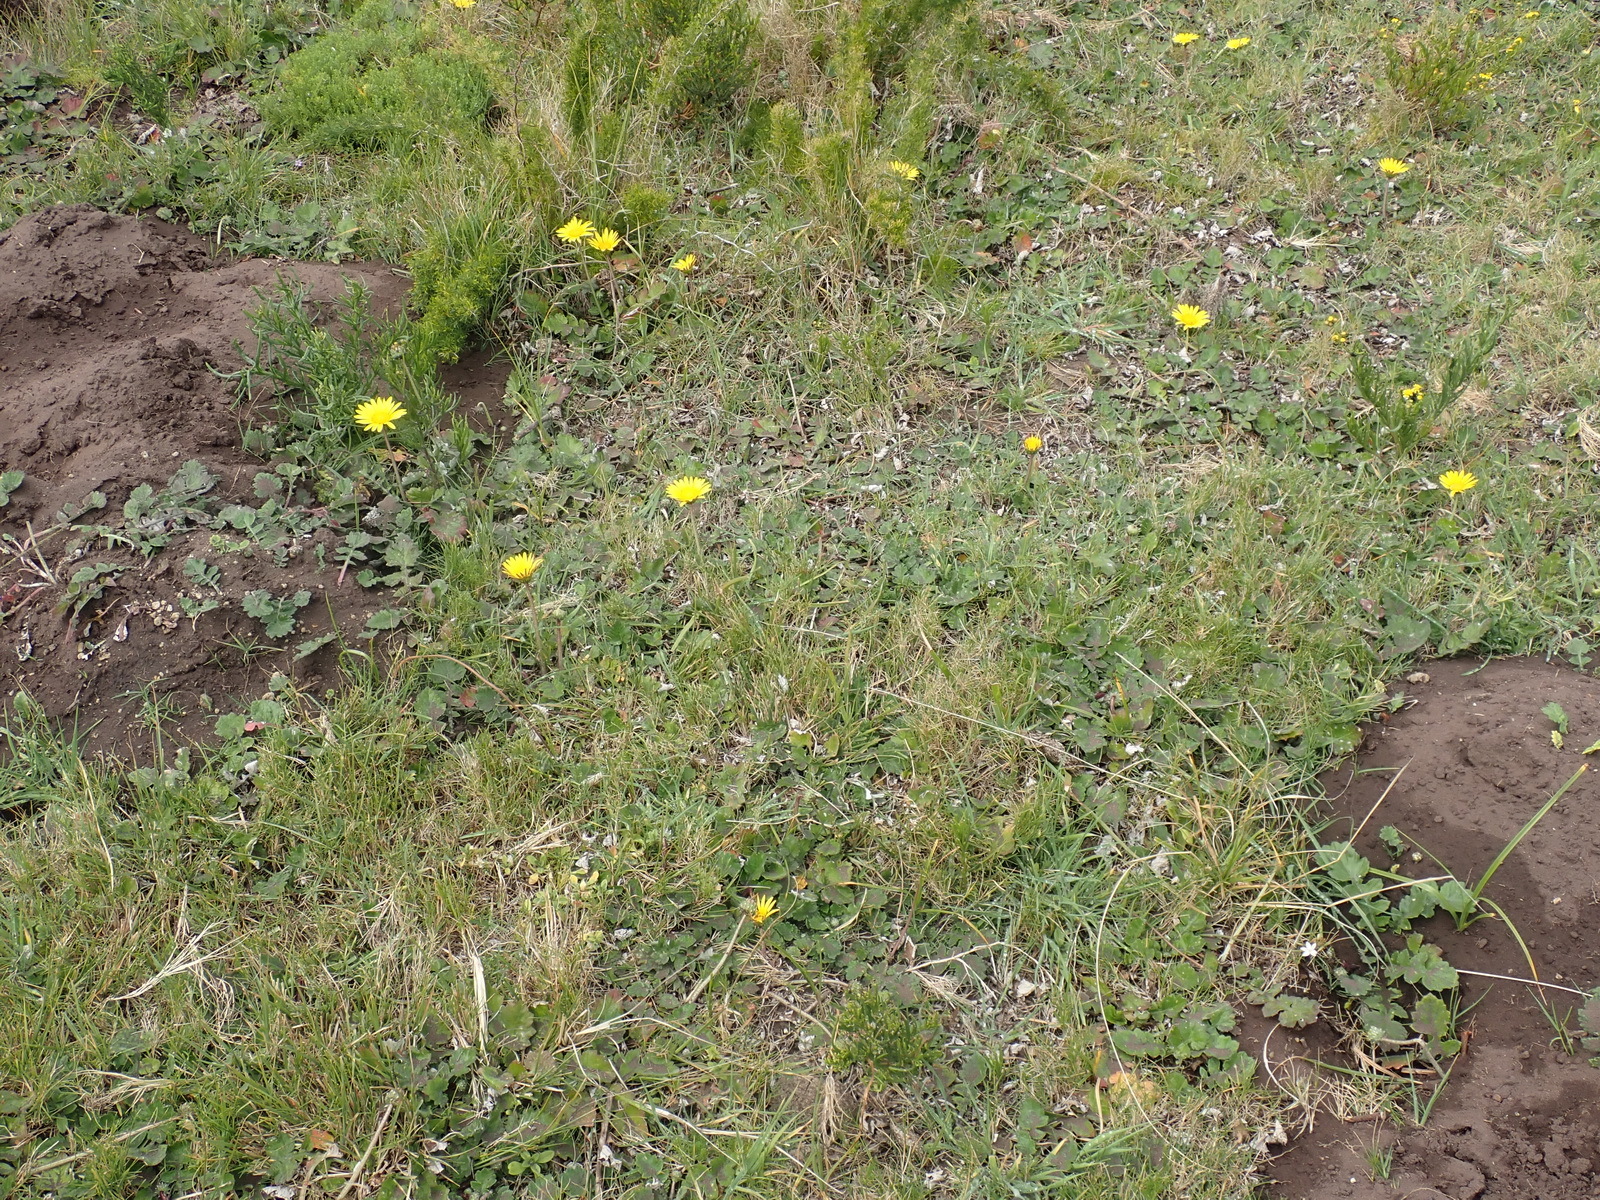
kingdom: Plantae
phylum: Tracheophyta
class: Magnoliopsida
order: Asterales
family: Asteraceae
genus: Arctotheca
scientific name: Arctotheca prostrata
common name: Capeweed
